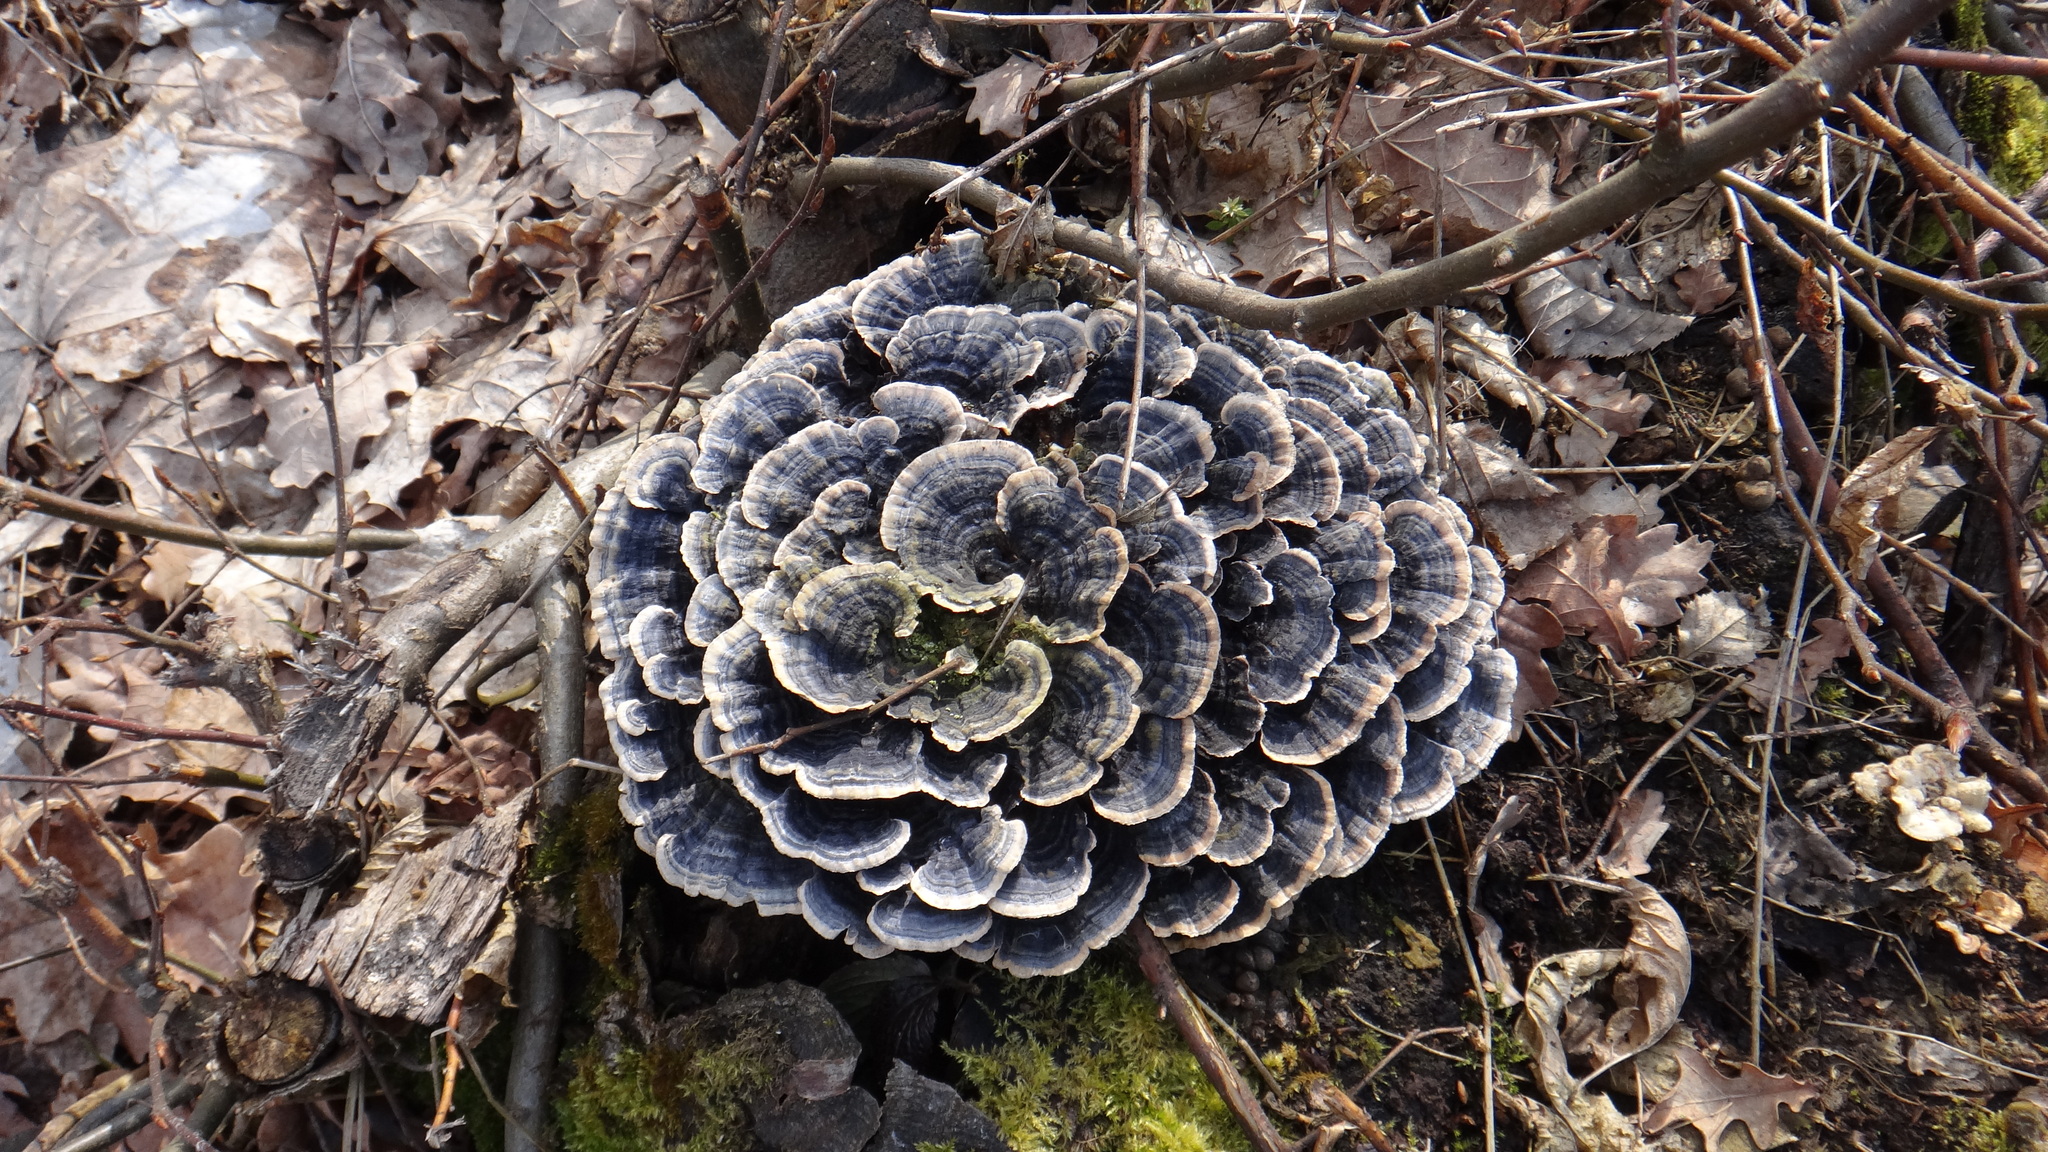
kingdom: Fungi
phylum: Basidiomycota
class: Agaricomycetes
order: Polyporales
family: Polyporaceae
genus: Trametes
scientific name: Trametes versicolor
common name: Turkeytail
